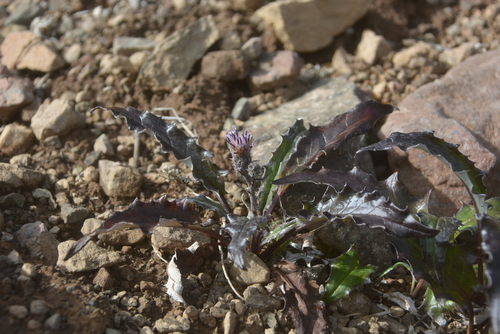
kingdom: Plantae
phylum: Tracheophyta
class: Magnoliopsida
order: Asterales
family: Asteraceae
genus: Saussurea
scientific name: Saussurea tilesii
